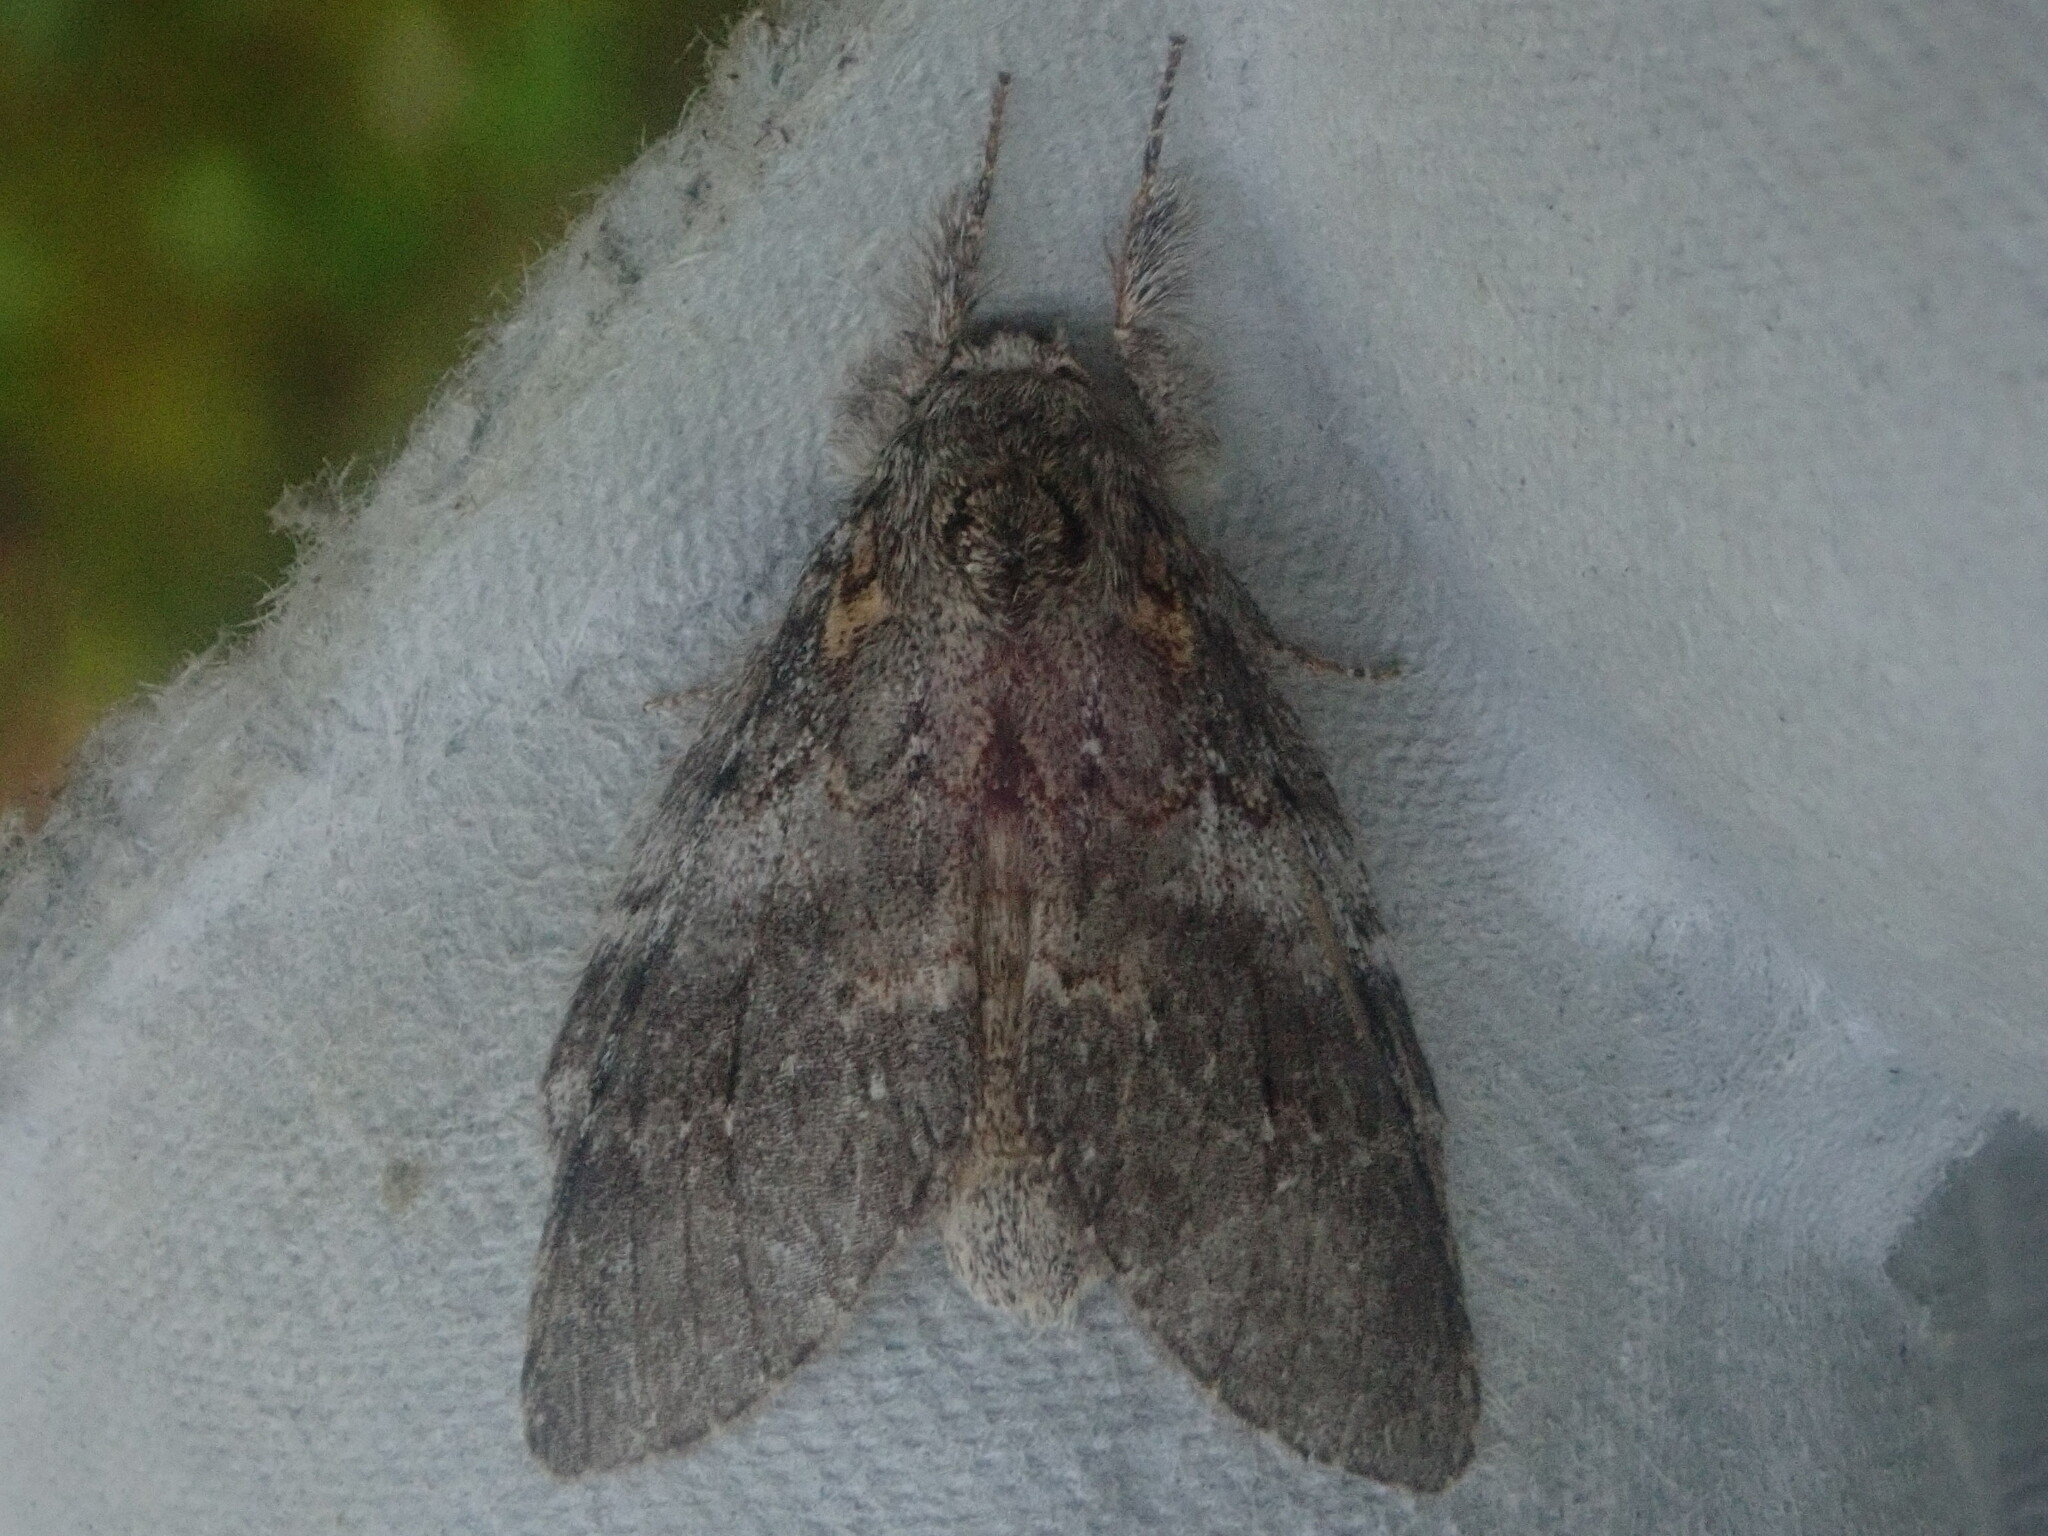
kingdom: Animalia
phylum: Arthropoda
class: Insecta
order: Lepidoptera
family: Notodontidae
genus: Peridea
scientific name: Peridea angulosa
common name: Angulose prominent
